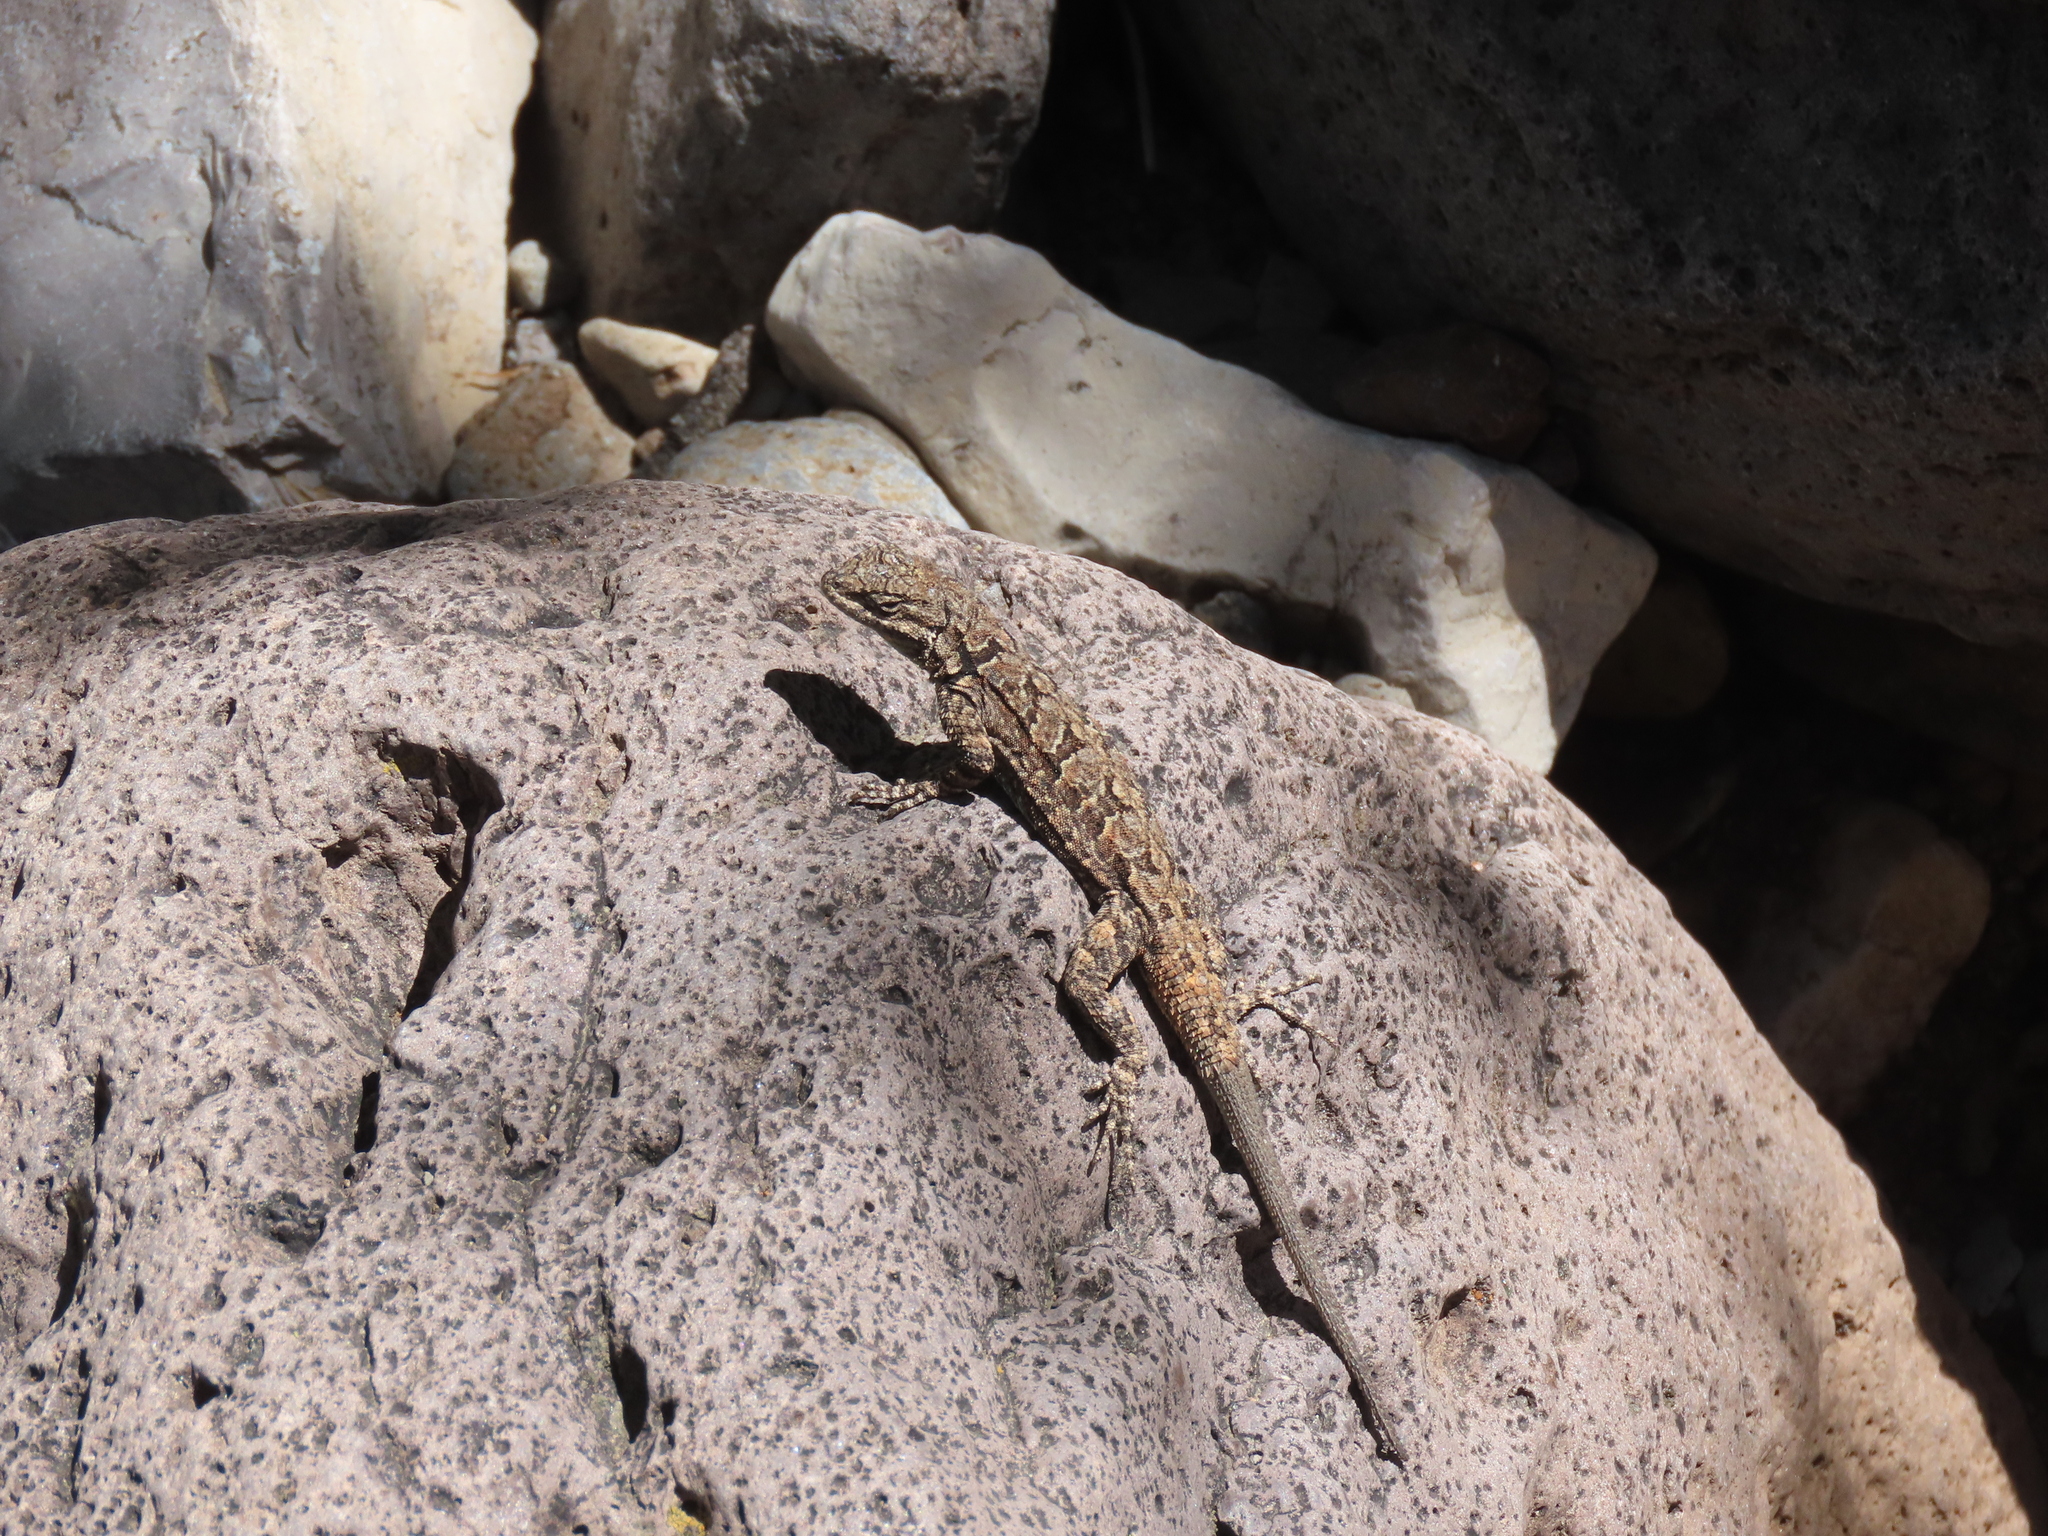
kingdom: Animalia
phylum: Chordata
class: Squamata
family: Phrynosomatidae
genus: Urosaurus
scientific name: Urosaurus ornatus
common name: Ornate tree lizard
